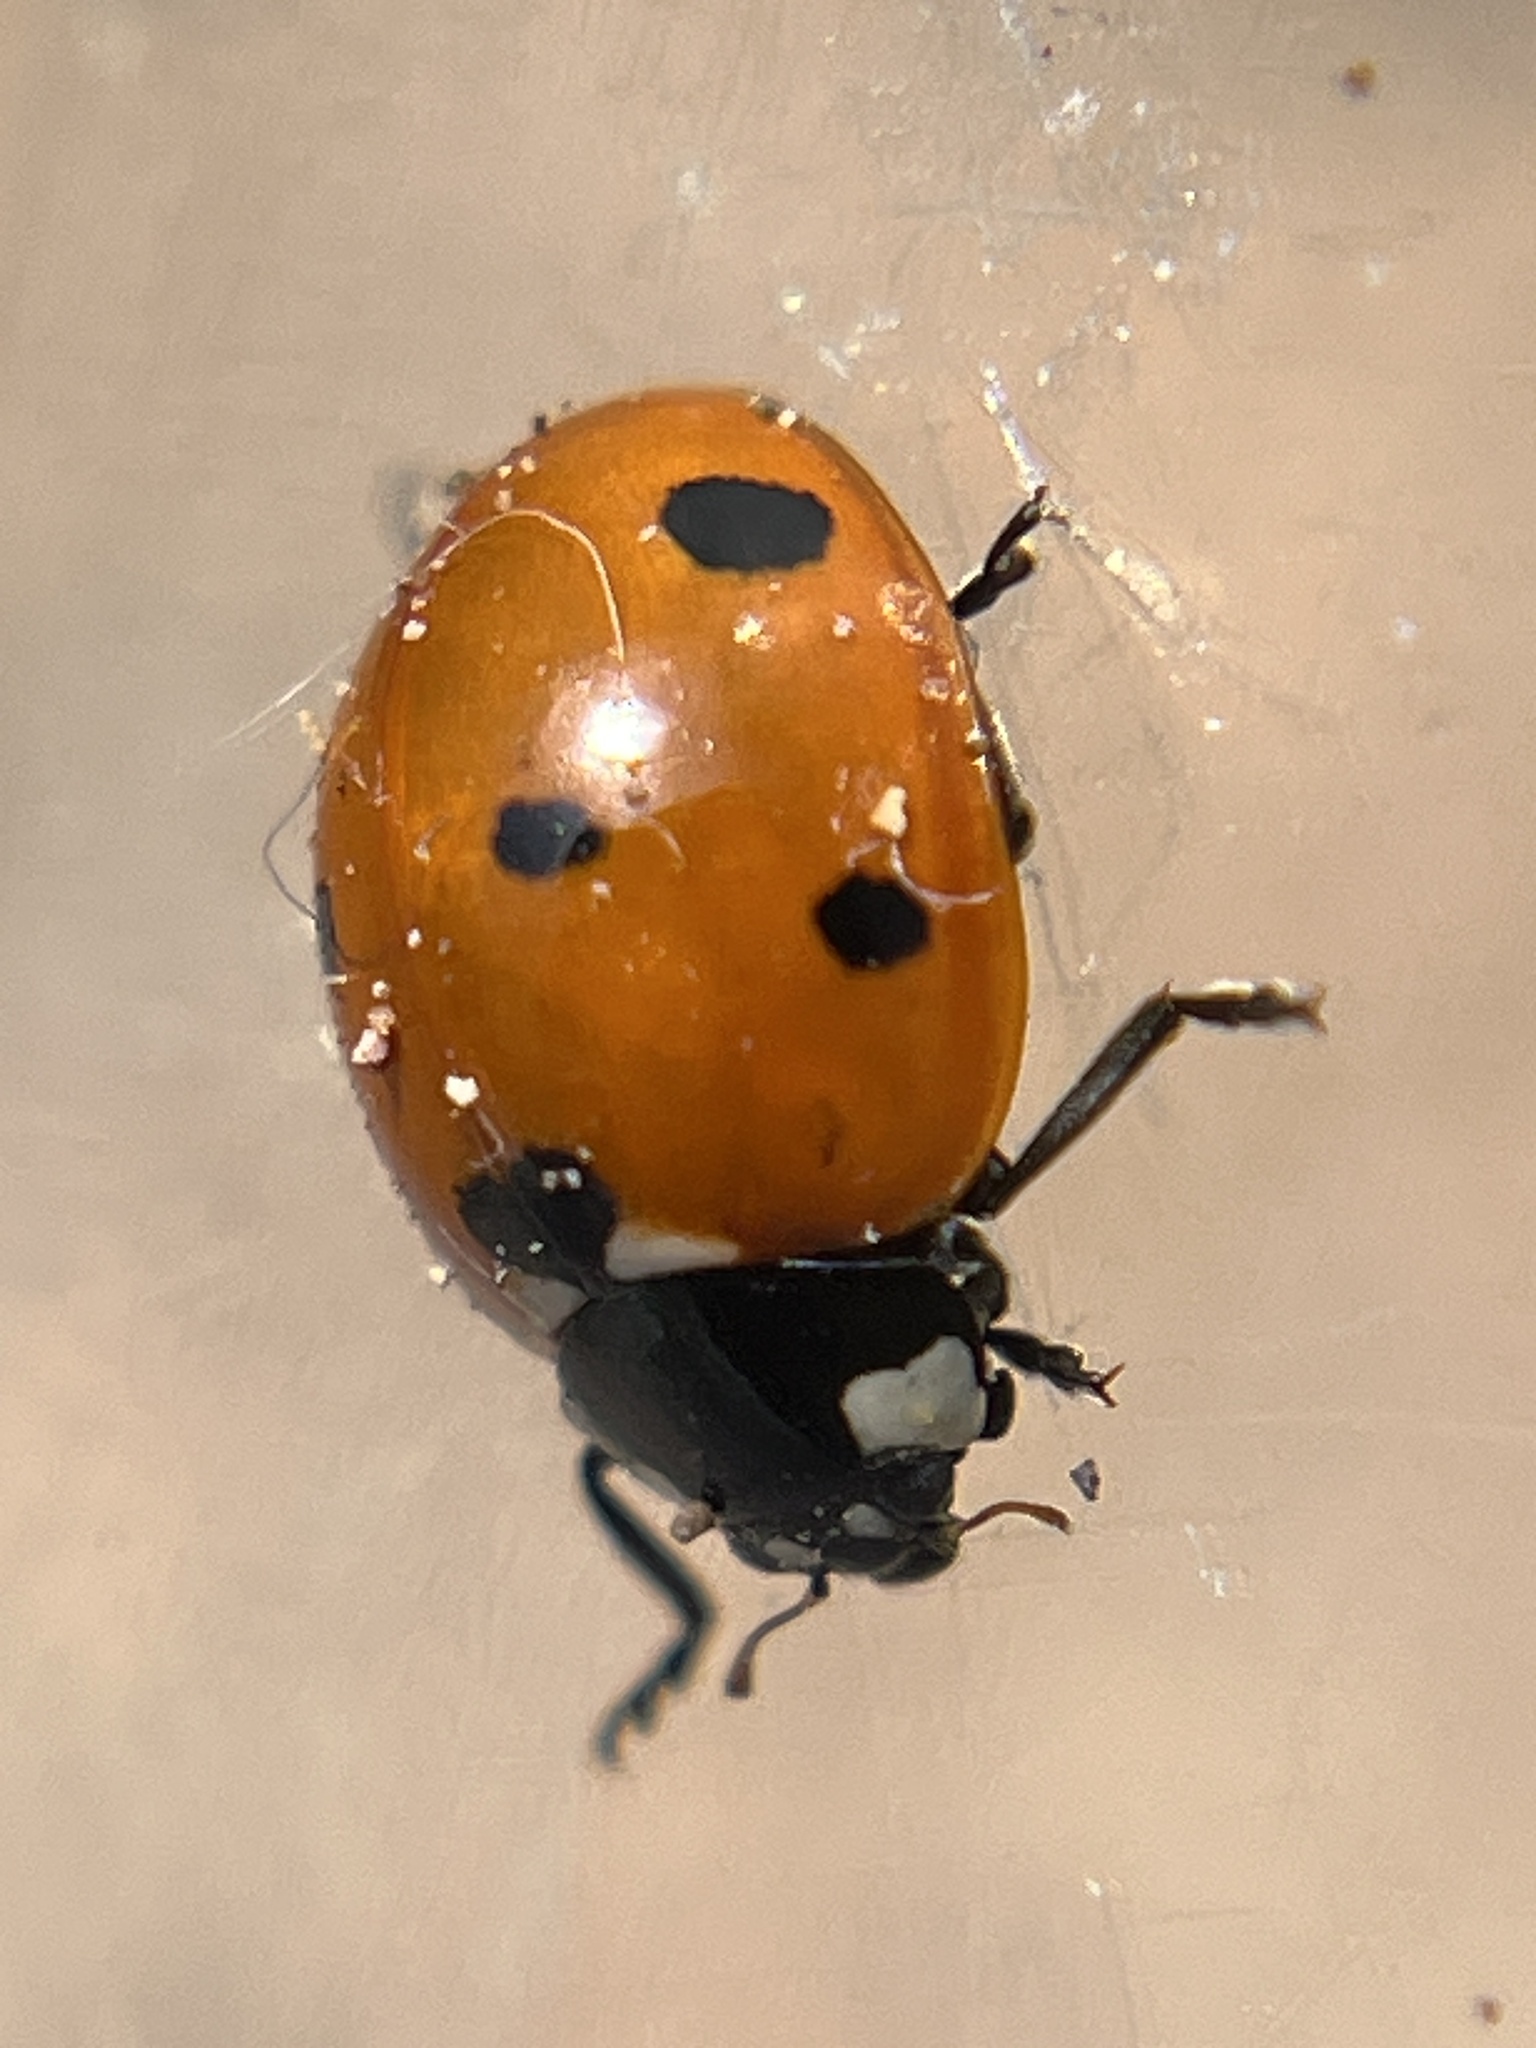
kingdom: Animalia
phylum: Arthropoda
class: Insecta
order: Coleoptera
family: Coccinellidae
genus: Coccinella
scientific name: Coccinella septempunctata
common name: Sevenspotted lady beetle
